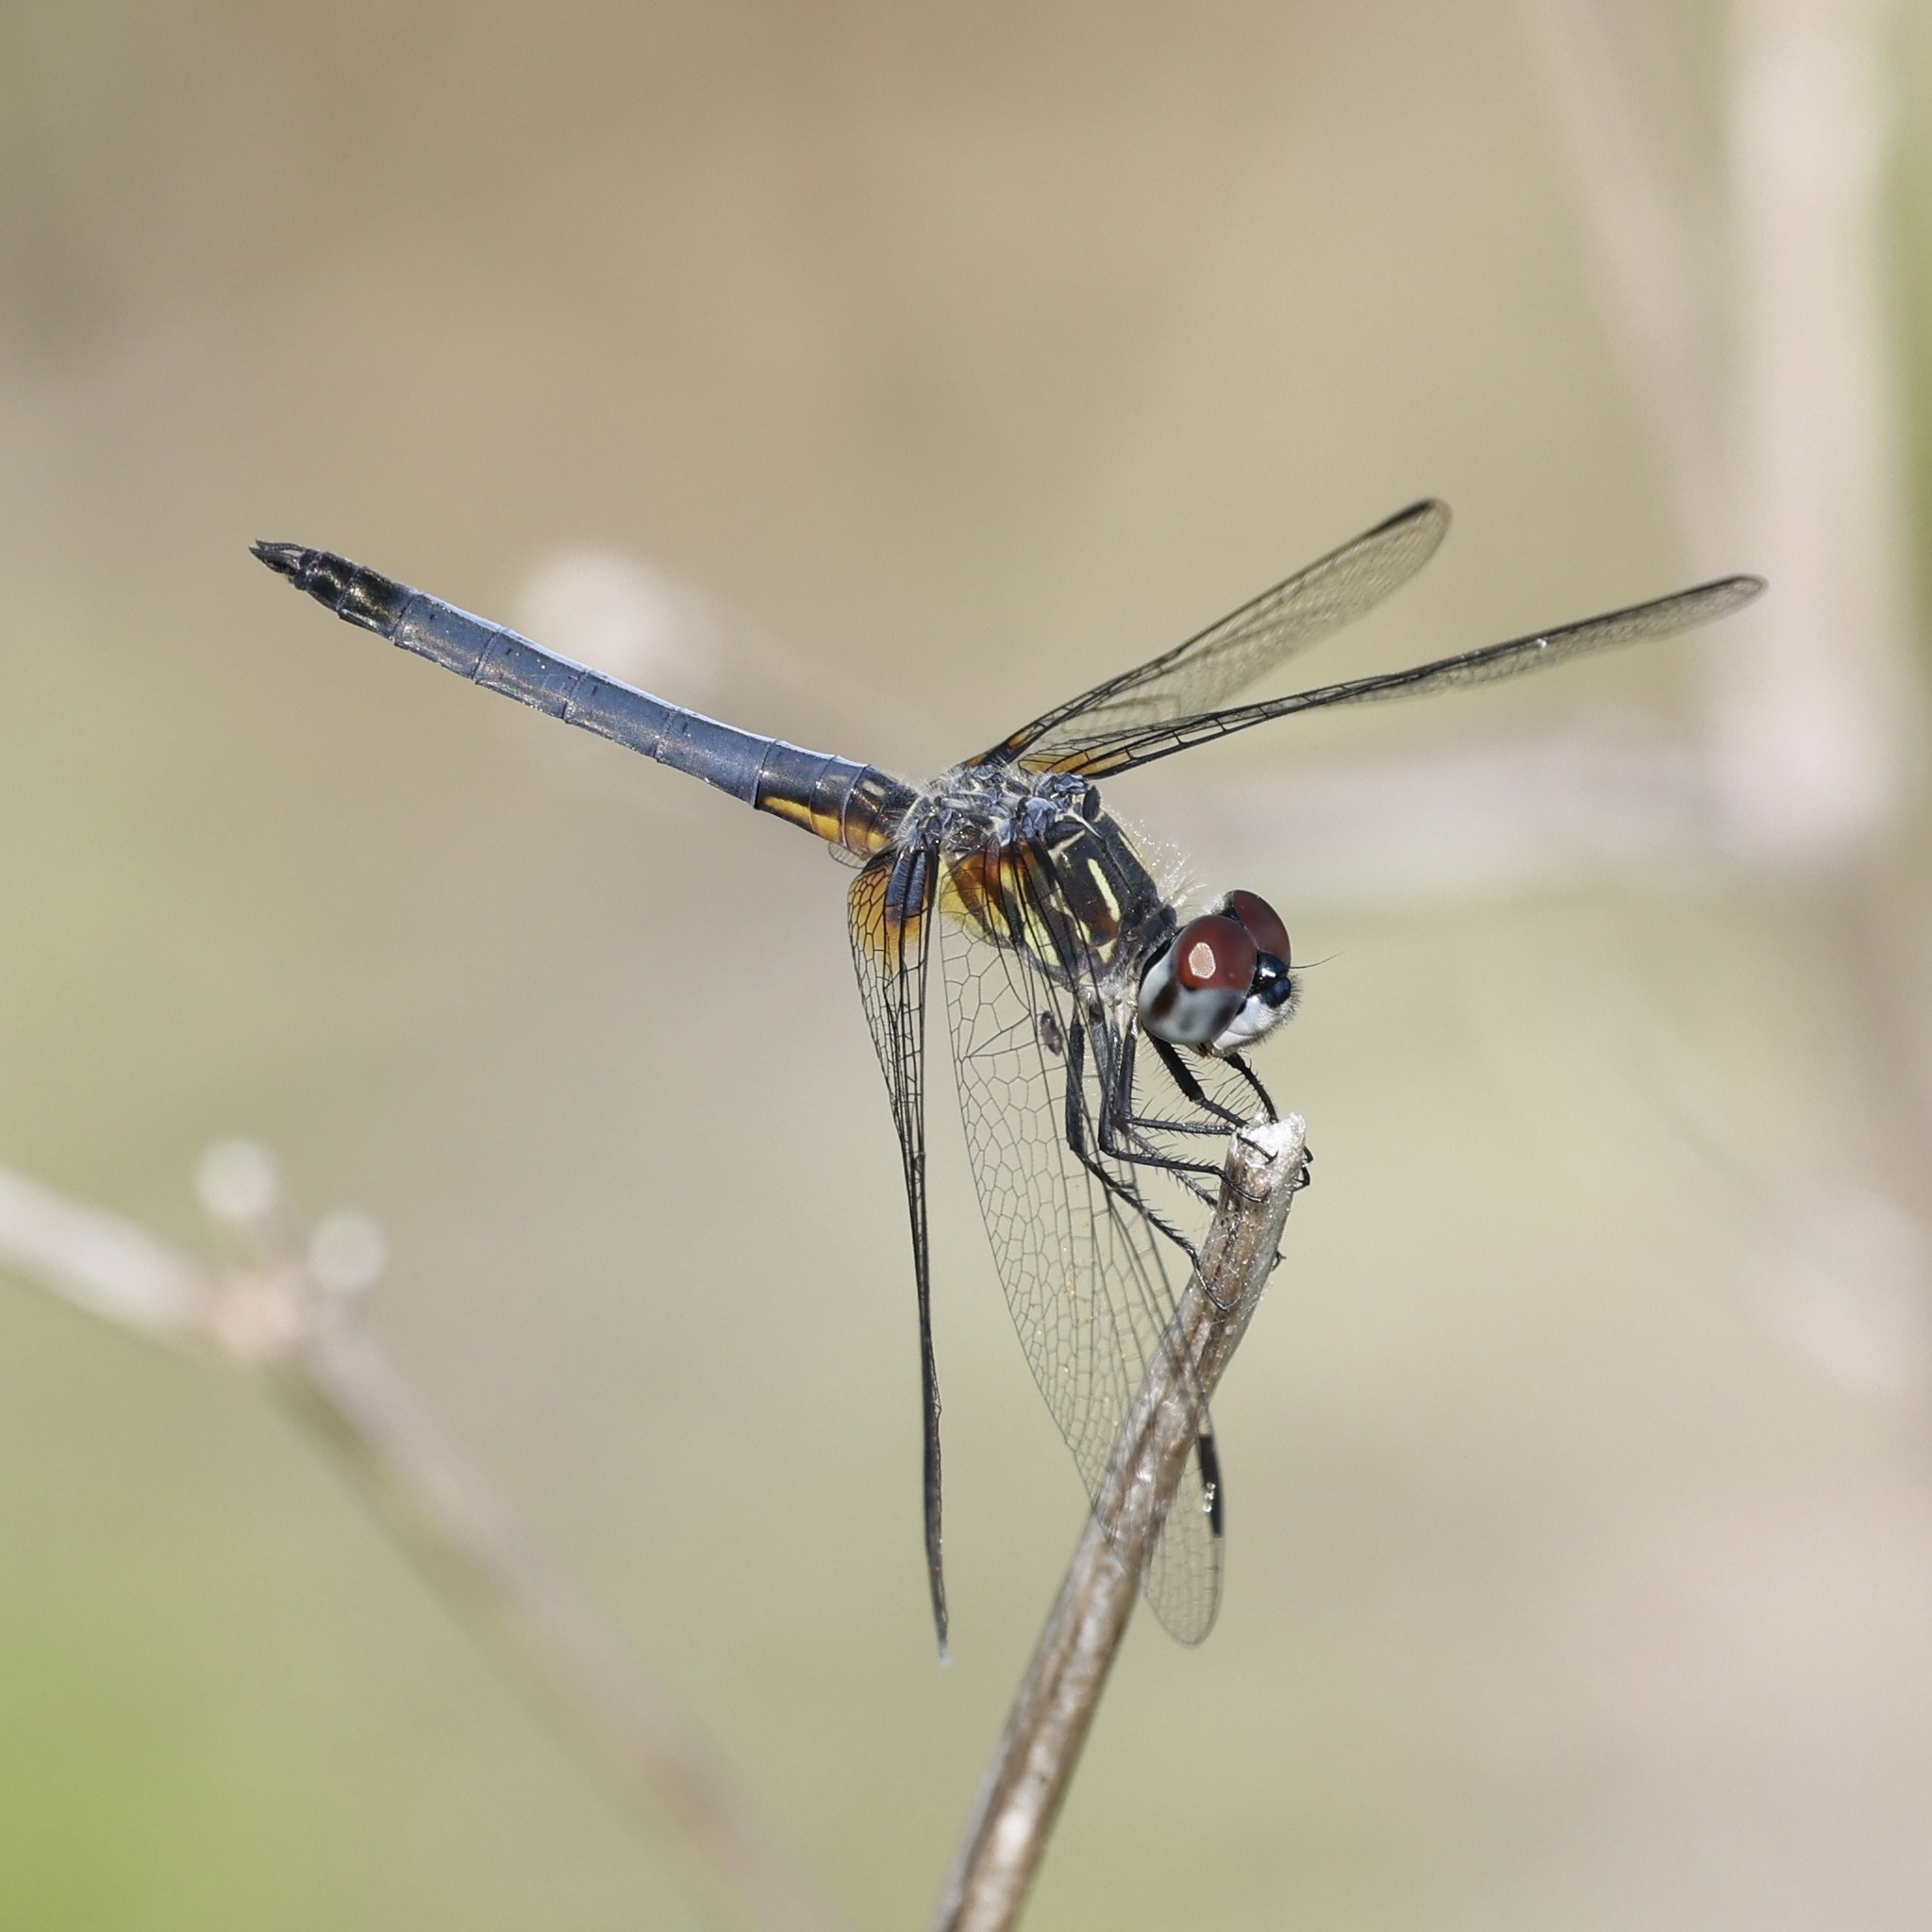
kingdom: Animalia
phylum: Arthropoda
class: Insecta
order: Odonata
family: Libellulidae
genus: Pachydiplax
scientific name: Pachydiplax longipennis
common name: Blue dasher
